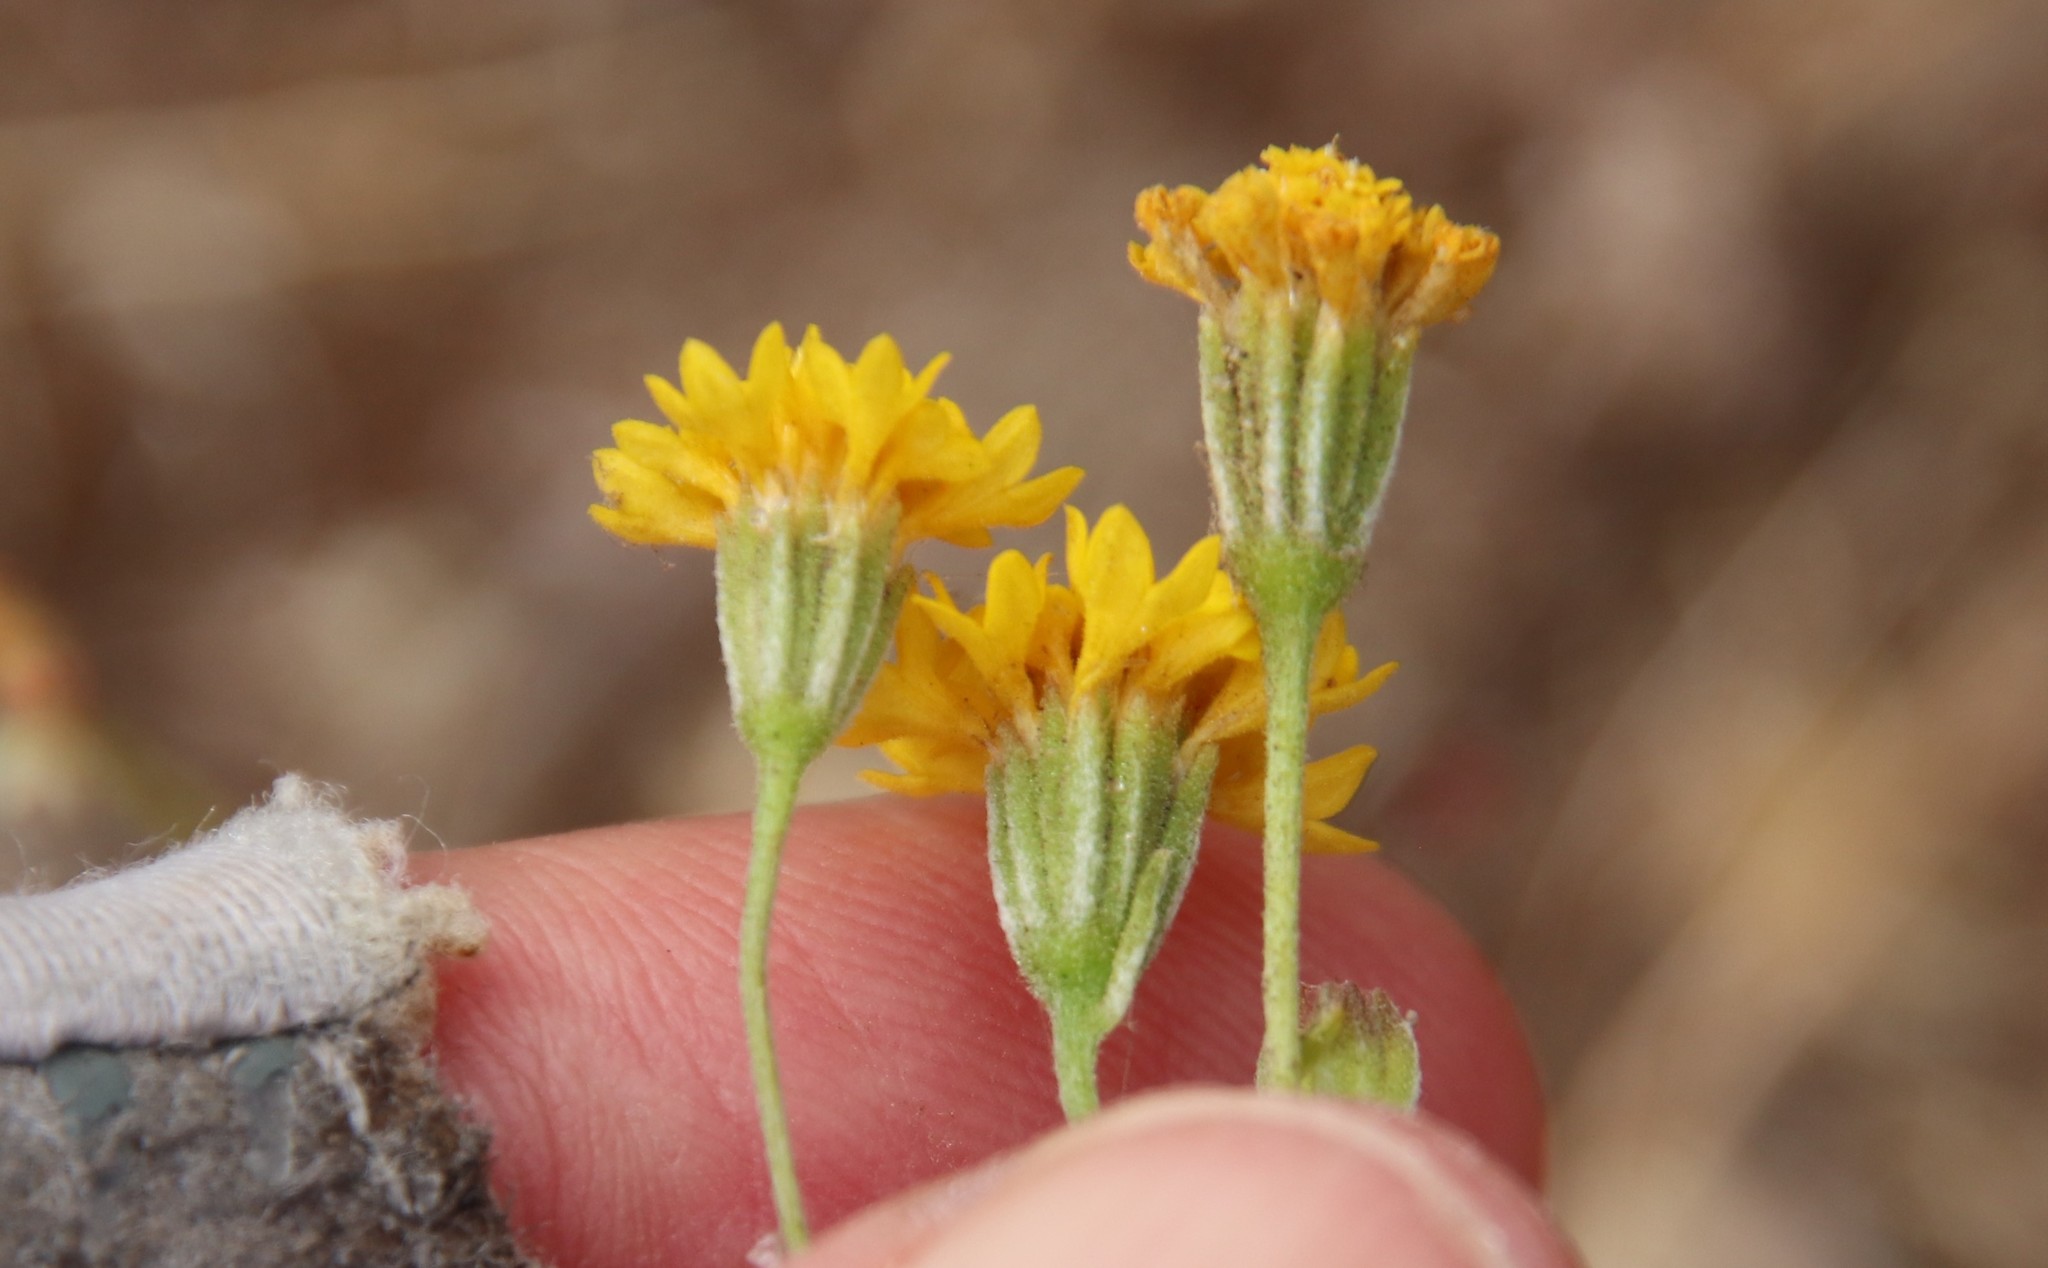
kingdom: Plantae
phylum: Tracheophyta
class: Magnoliopsida
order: Asterales
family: Asteraceae
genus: Chaenactis
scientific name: Chaenactis glabriuscula
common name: Yellow pincushion
